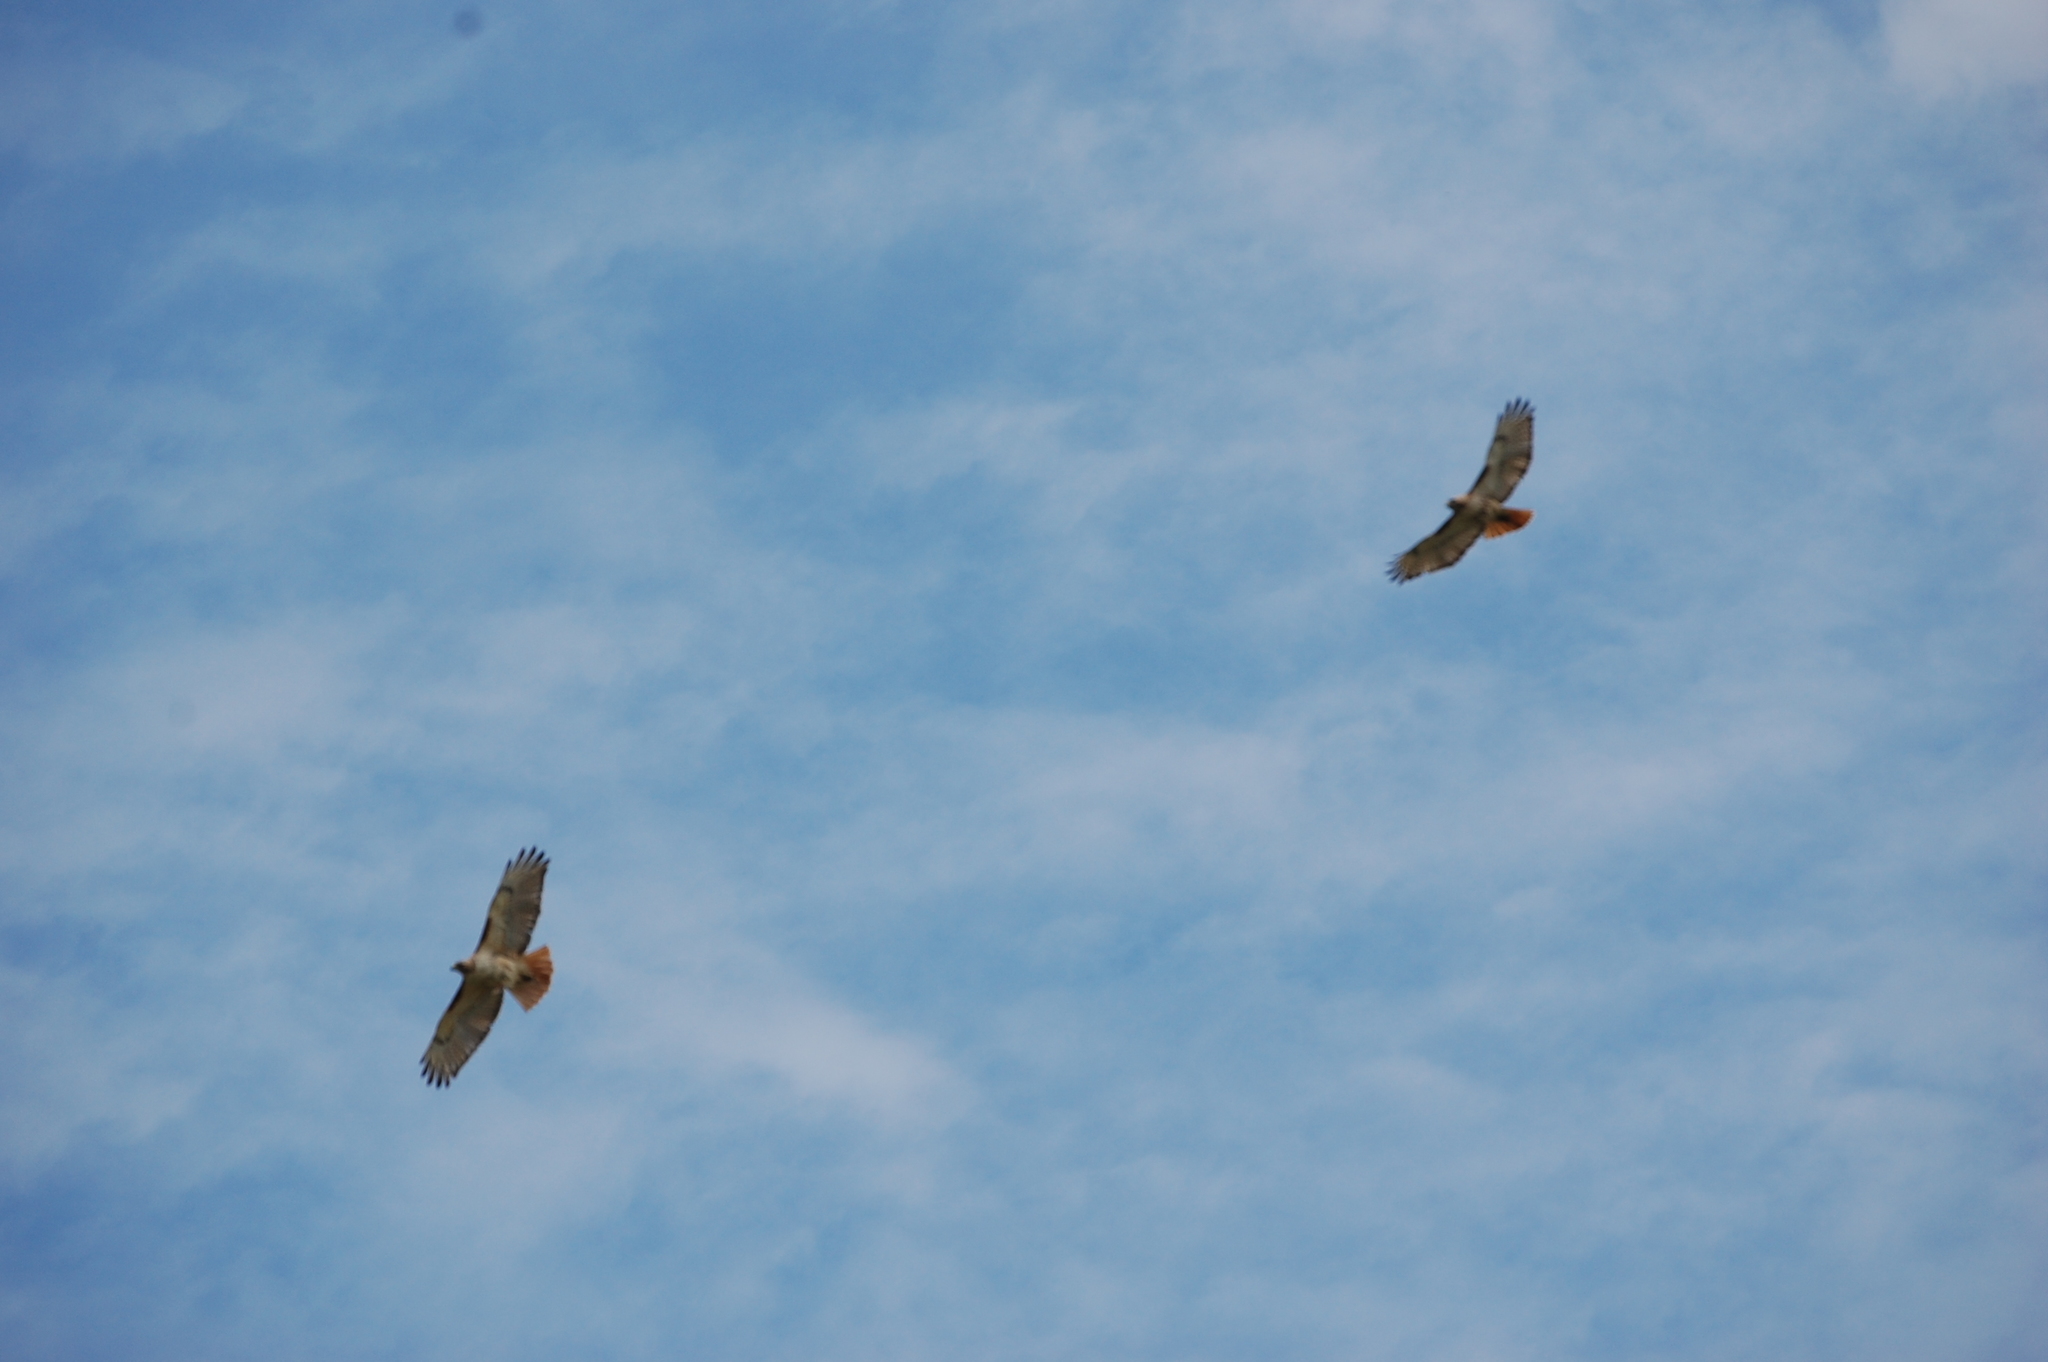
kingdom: Animalia
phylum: Chordata
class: Aves
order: Accipitriformes
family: Accipitridae
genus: Buteo
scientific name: Buteo jamaicensis
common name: Red-tailed hawk
